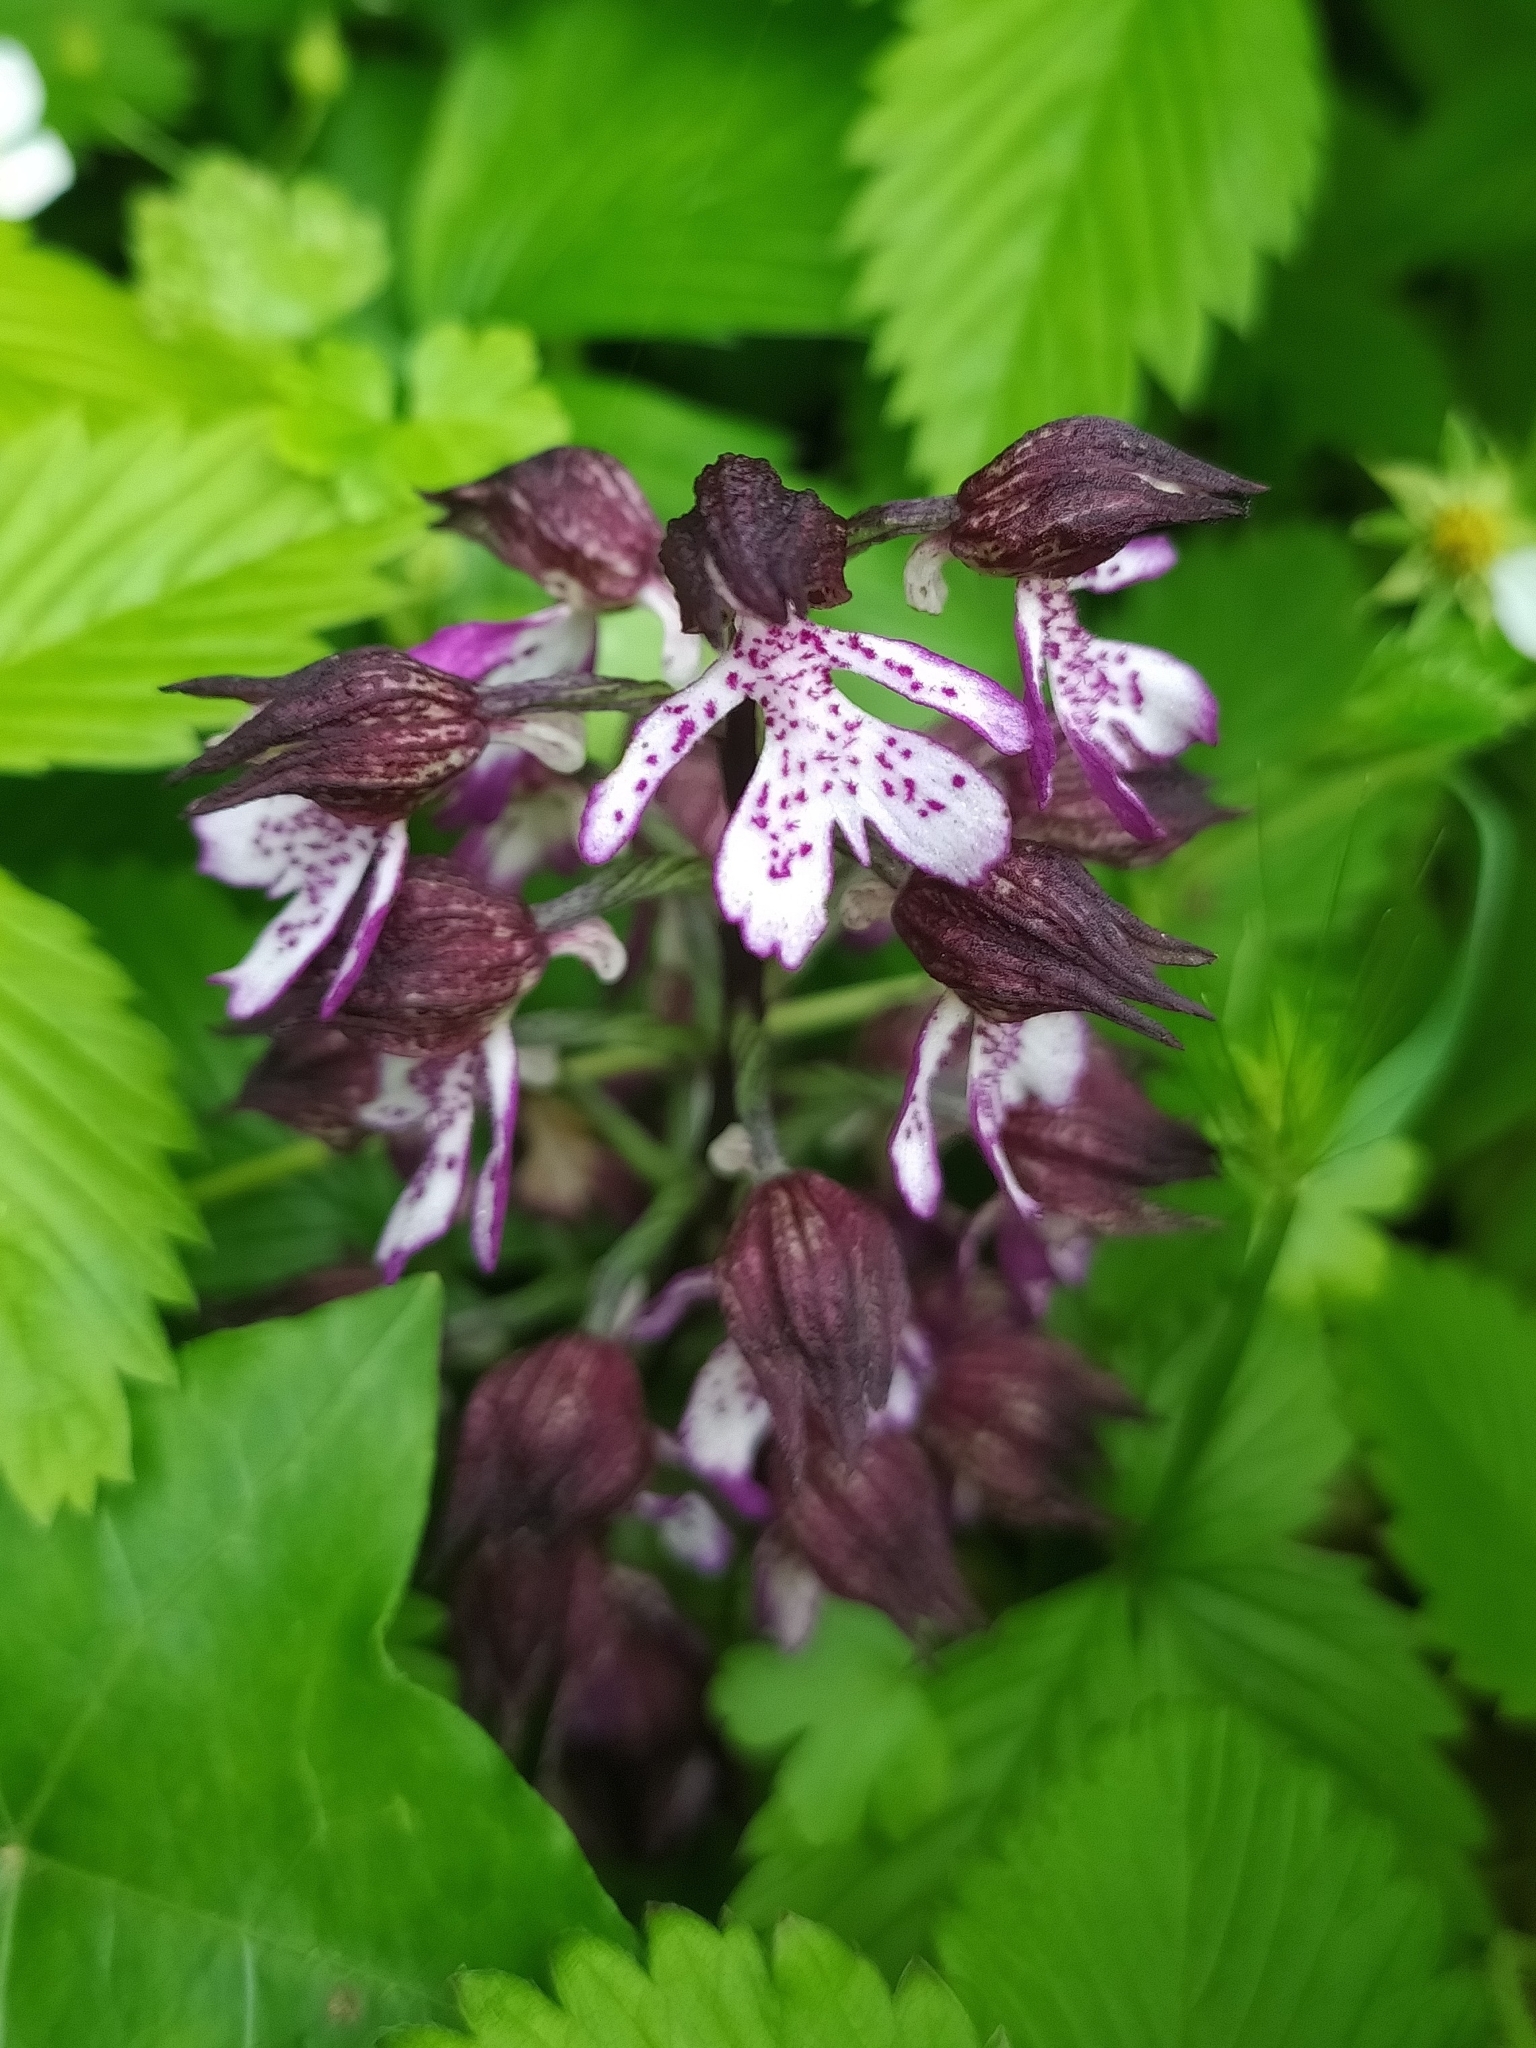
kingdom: Plantae
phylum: Tracheophyta
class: Liliopsida
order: Asparagales
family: Orchidaceae
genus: Orchis
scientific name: Orchis purpurea
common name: Lady orchid
